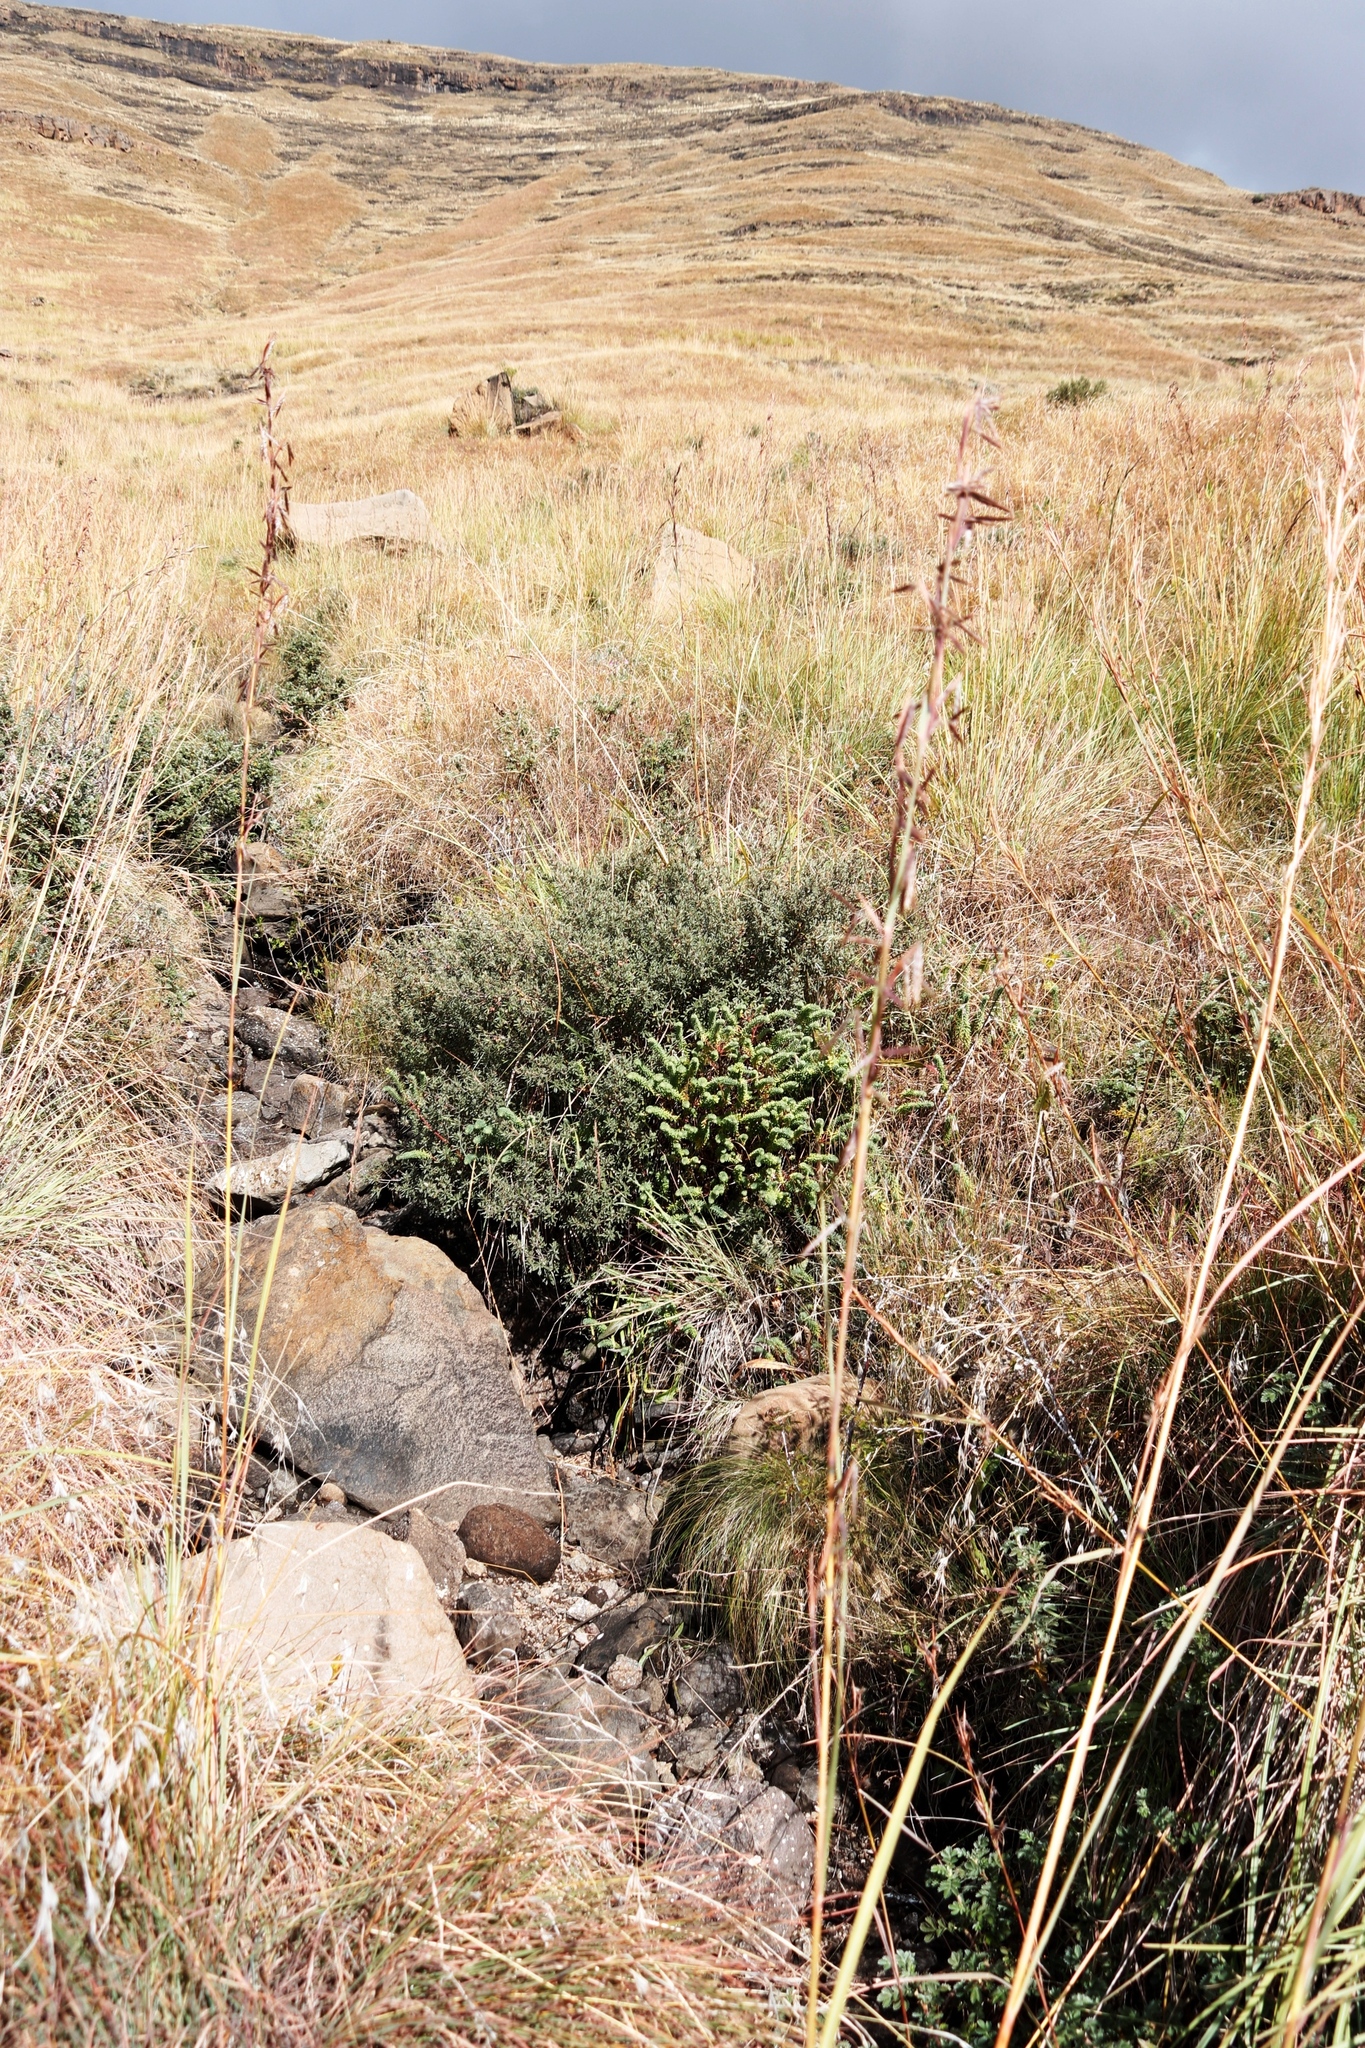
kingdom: Plantae
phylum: Tracheophyta
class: Magnoliopsida
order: Ericales
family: Ebenaceae
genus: Diospyros
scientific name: Diospyros pubescens
